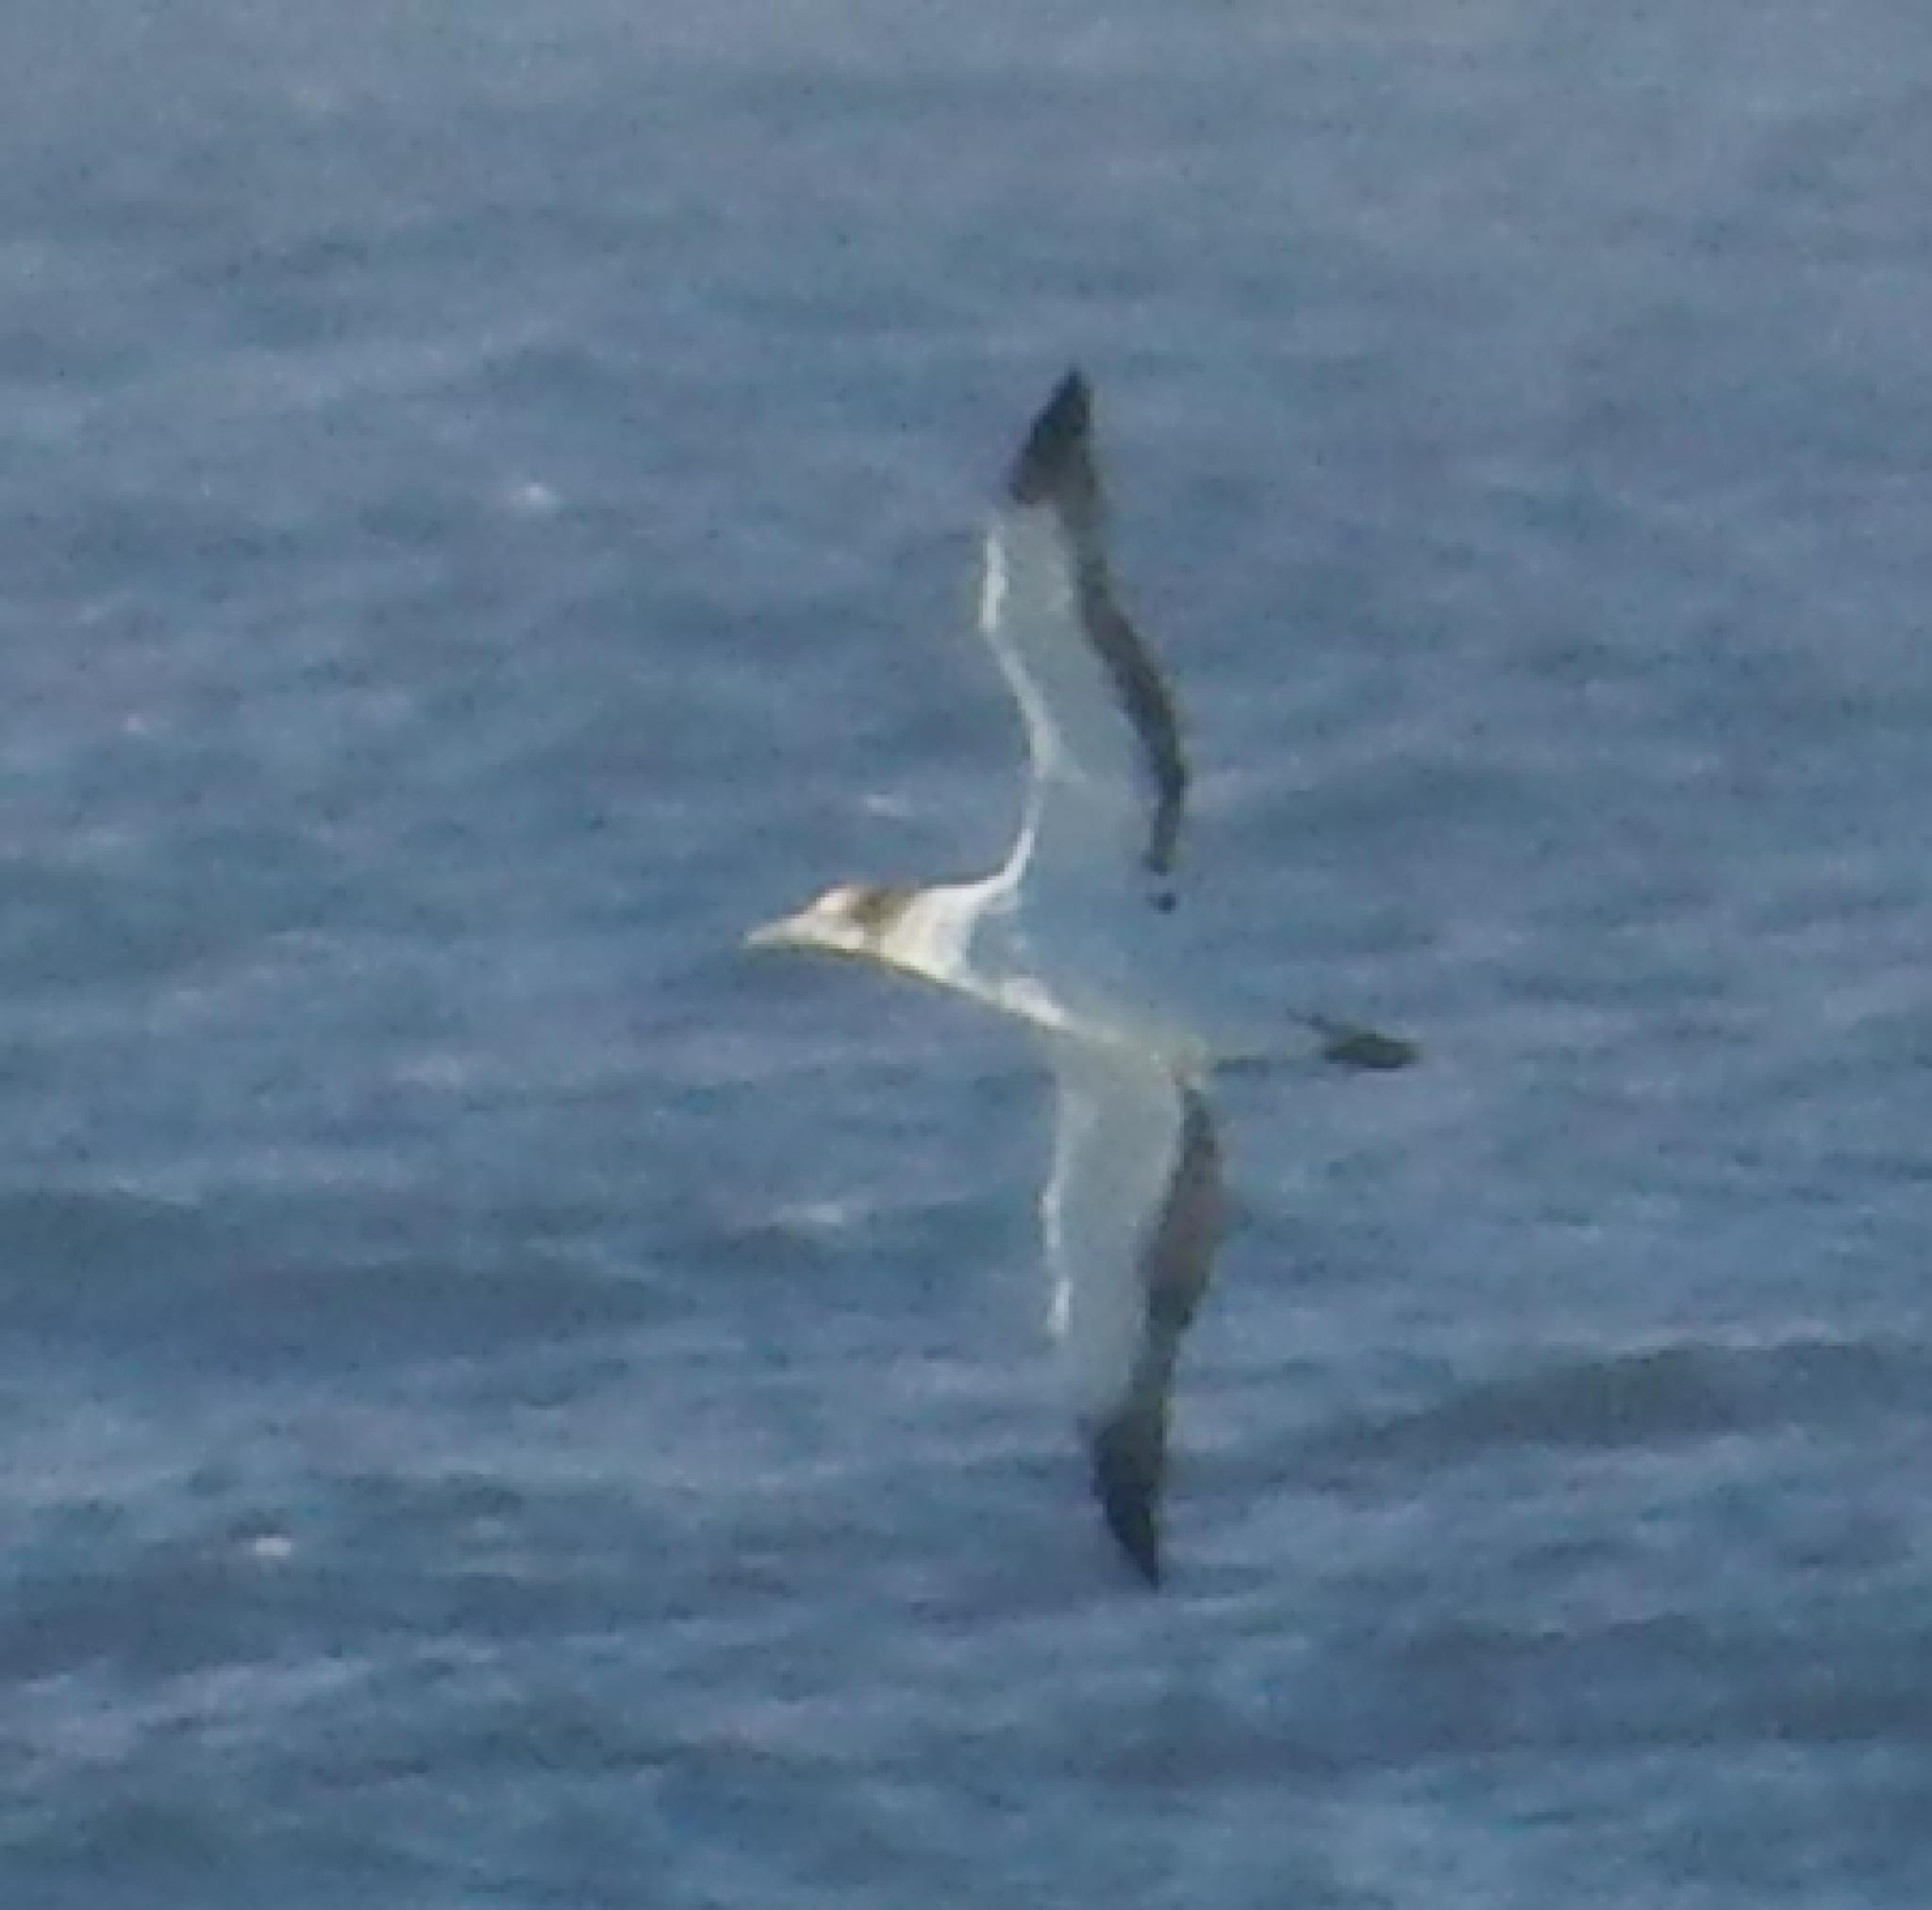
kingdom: Animalia
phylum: Chordata
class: Aves
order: Suliformes
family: Sulidae
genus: Morus
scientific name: Morus capensis
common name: Cape gannet
